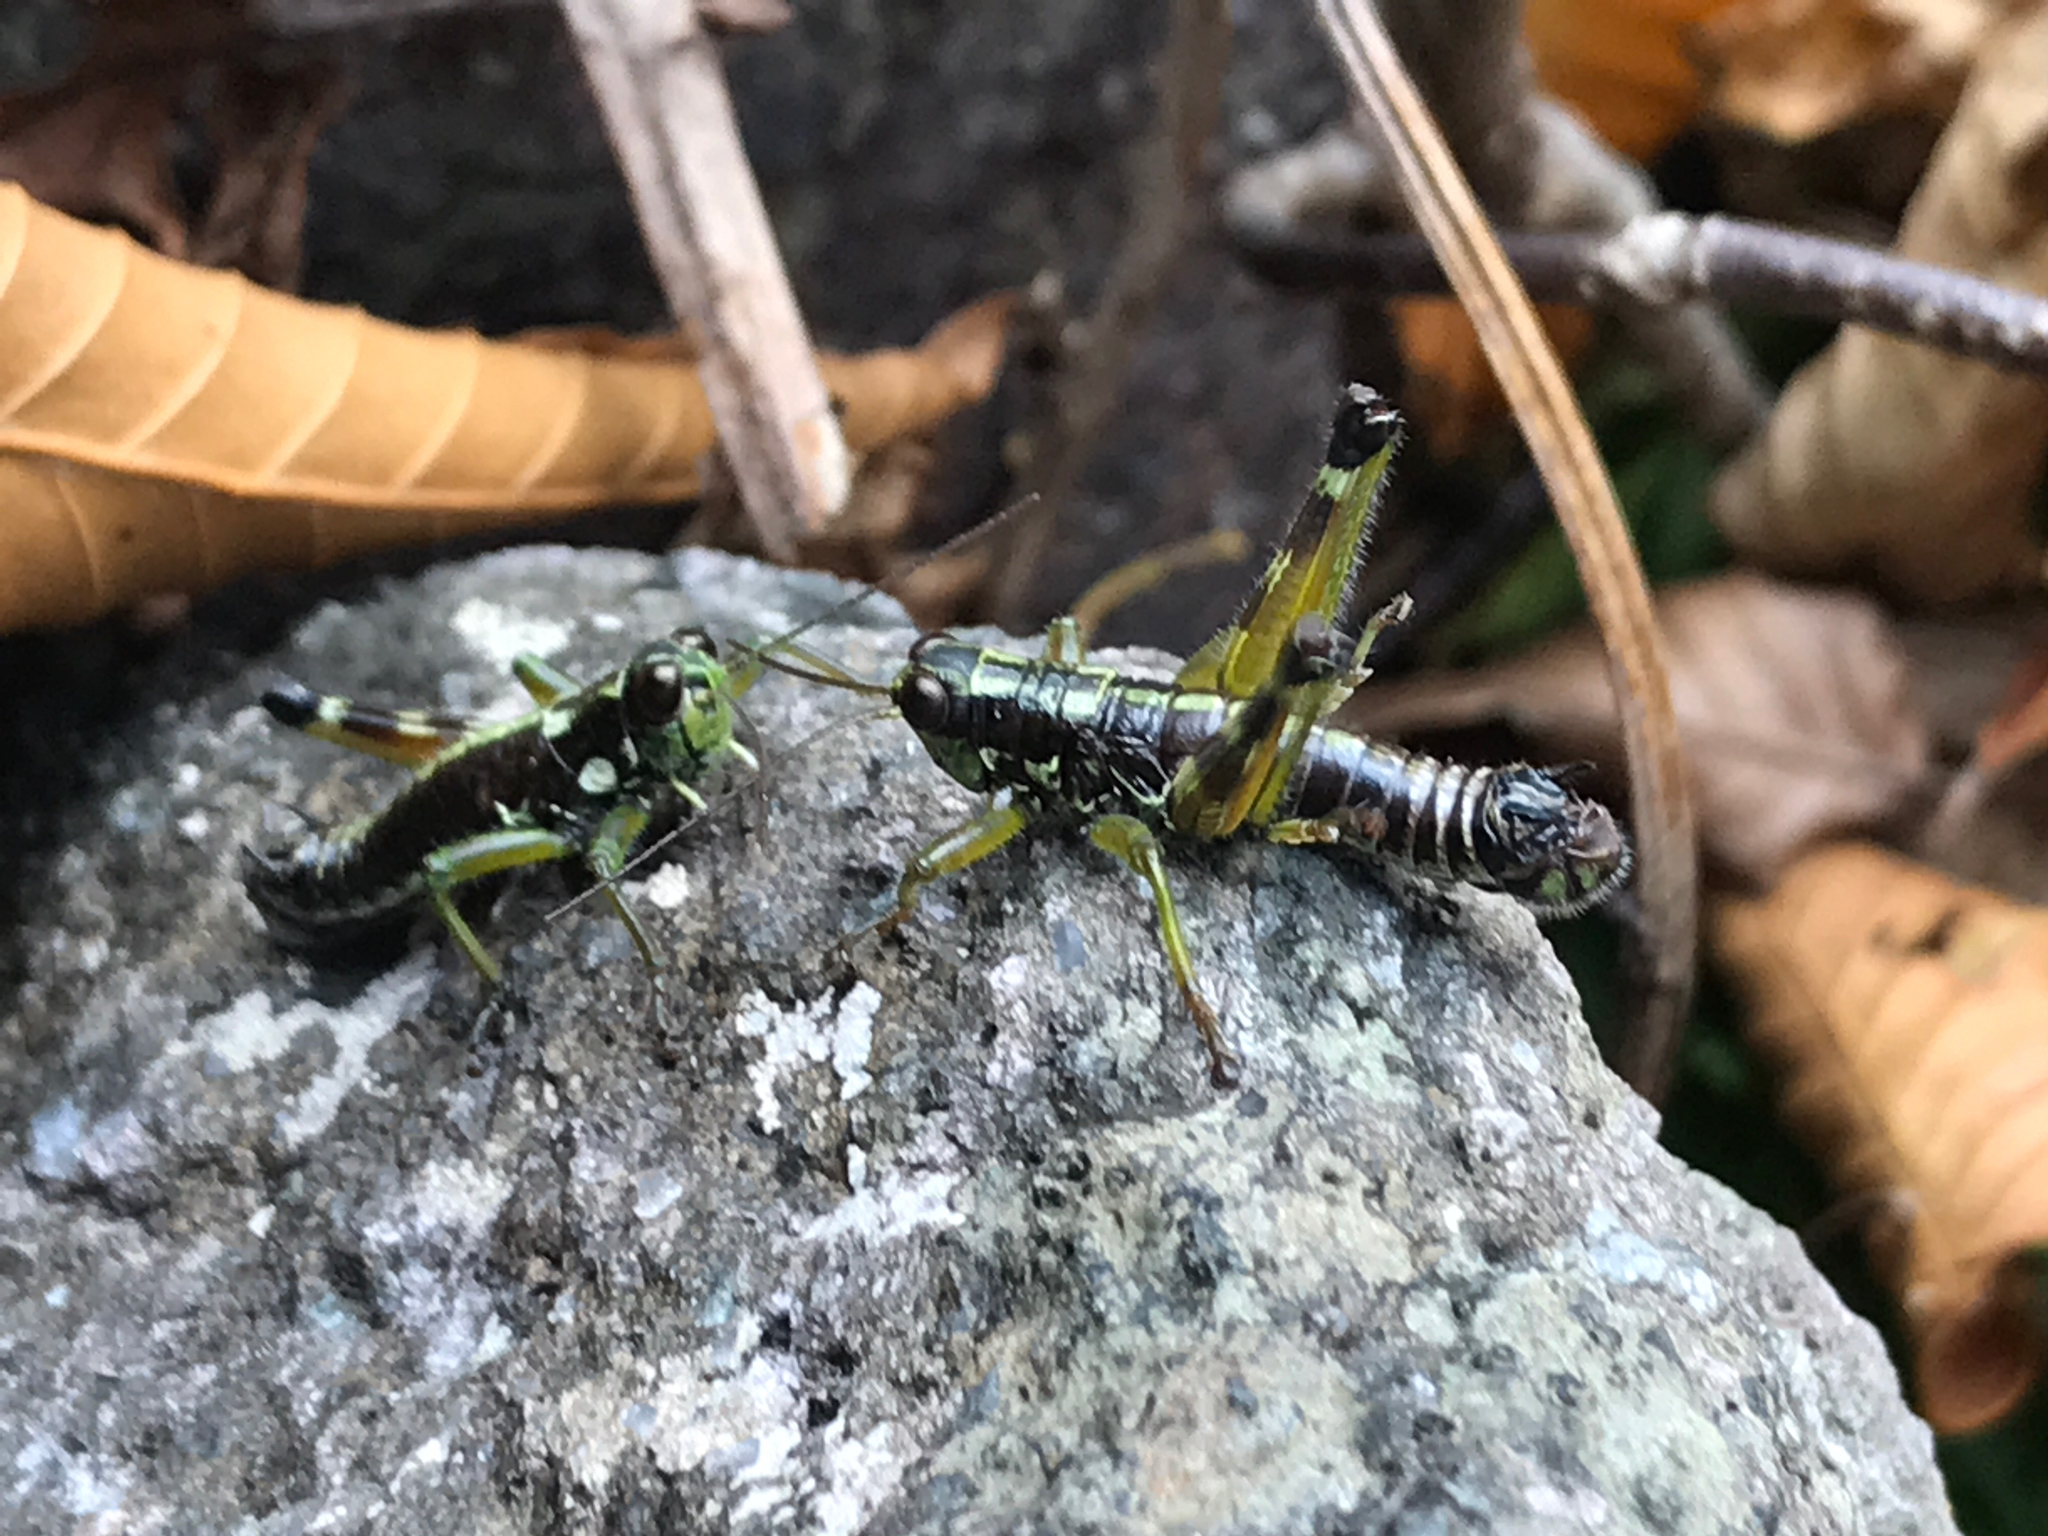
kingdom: Animalia
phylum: Arthropoda
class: Insecta
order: Orthoptera
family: Acrididae
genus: Booneacris
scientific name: Booneacris glacialis
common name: Wingless mountain grasshopper
